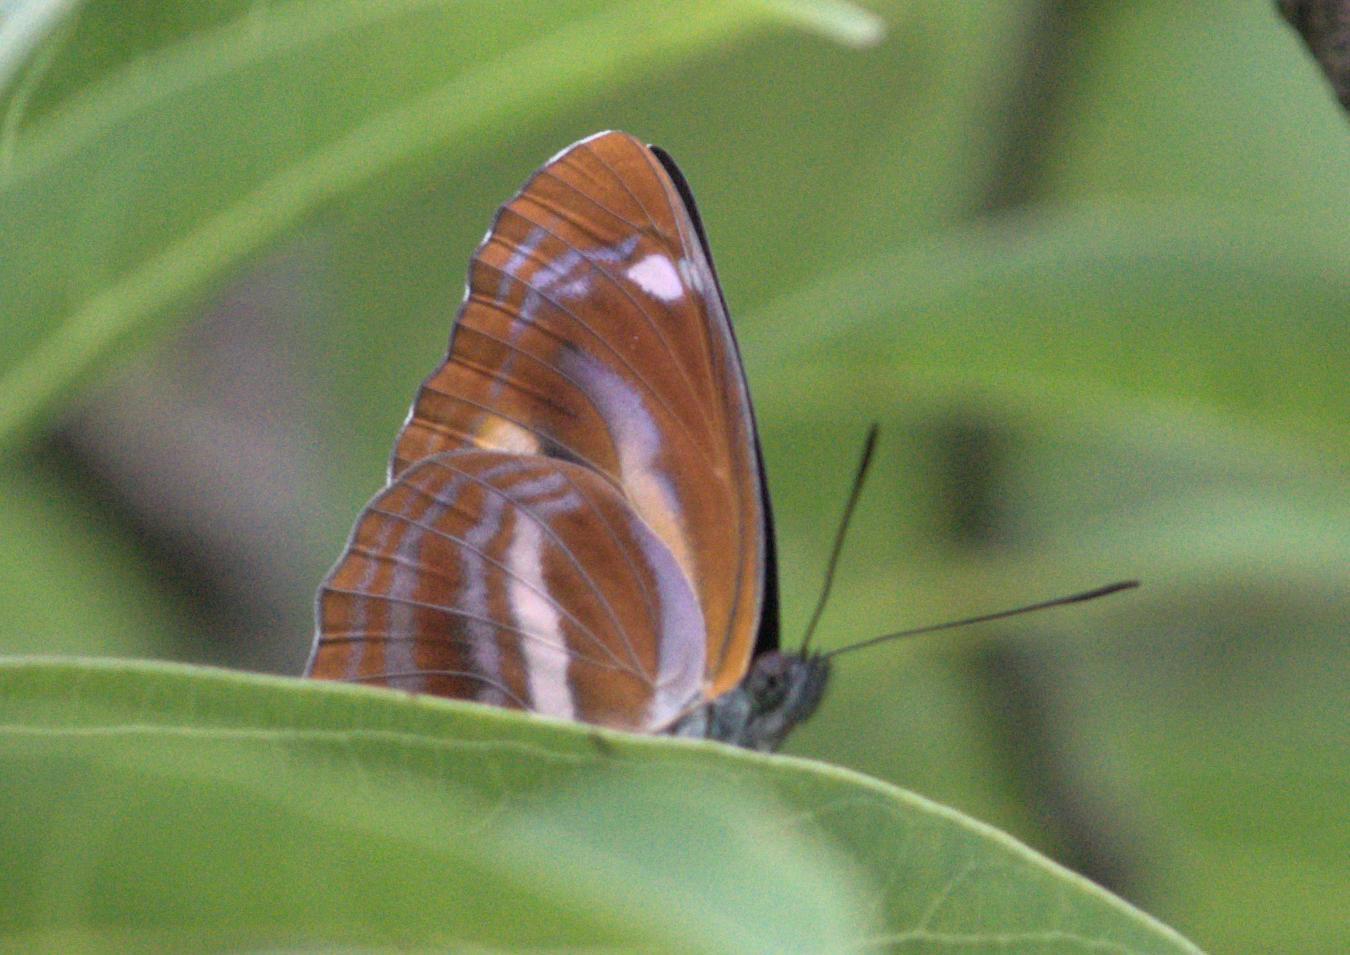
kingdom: Animalia
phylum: Arthropoda
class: Insecta
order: Lepidoptera
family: Nymphalidae
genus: Neptis
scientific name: Neptis ananta
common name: Yellow sailer
